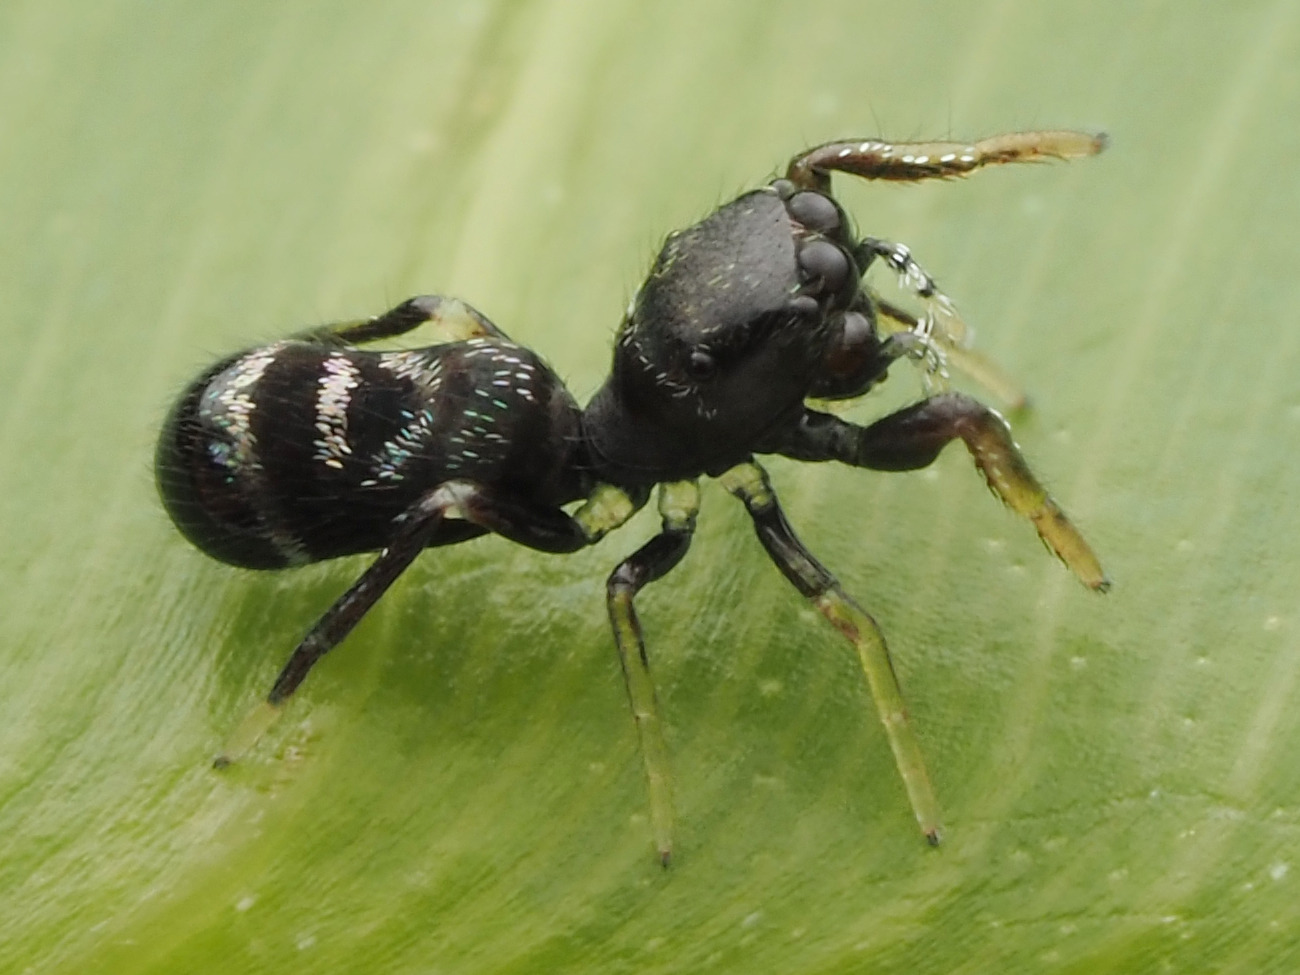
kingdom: Animalia
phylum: Arthropoda
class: Arachnida
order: Araneae
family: Salticidae
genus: Uluella
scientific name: Uluella formosa
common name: Jumping spiders
